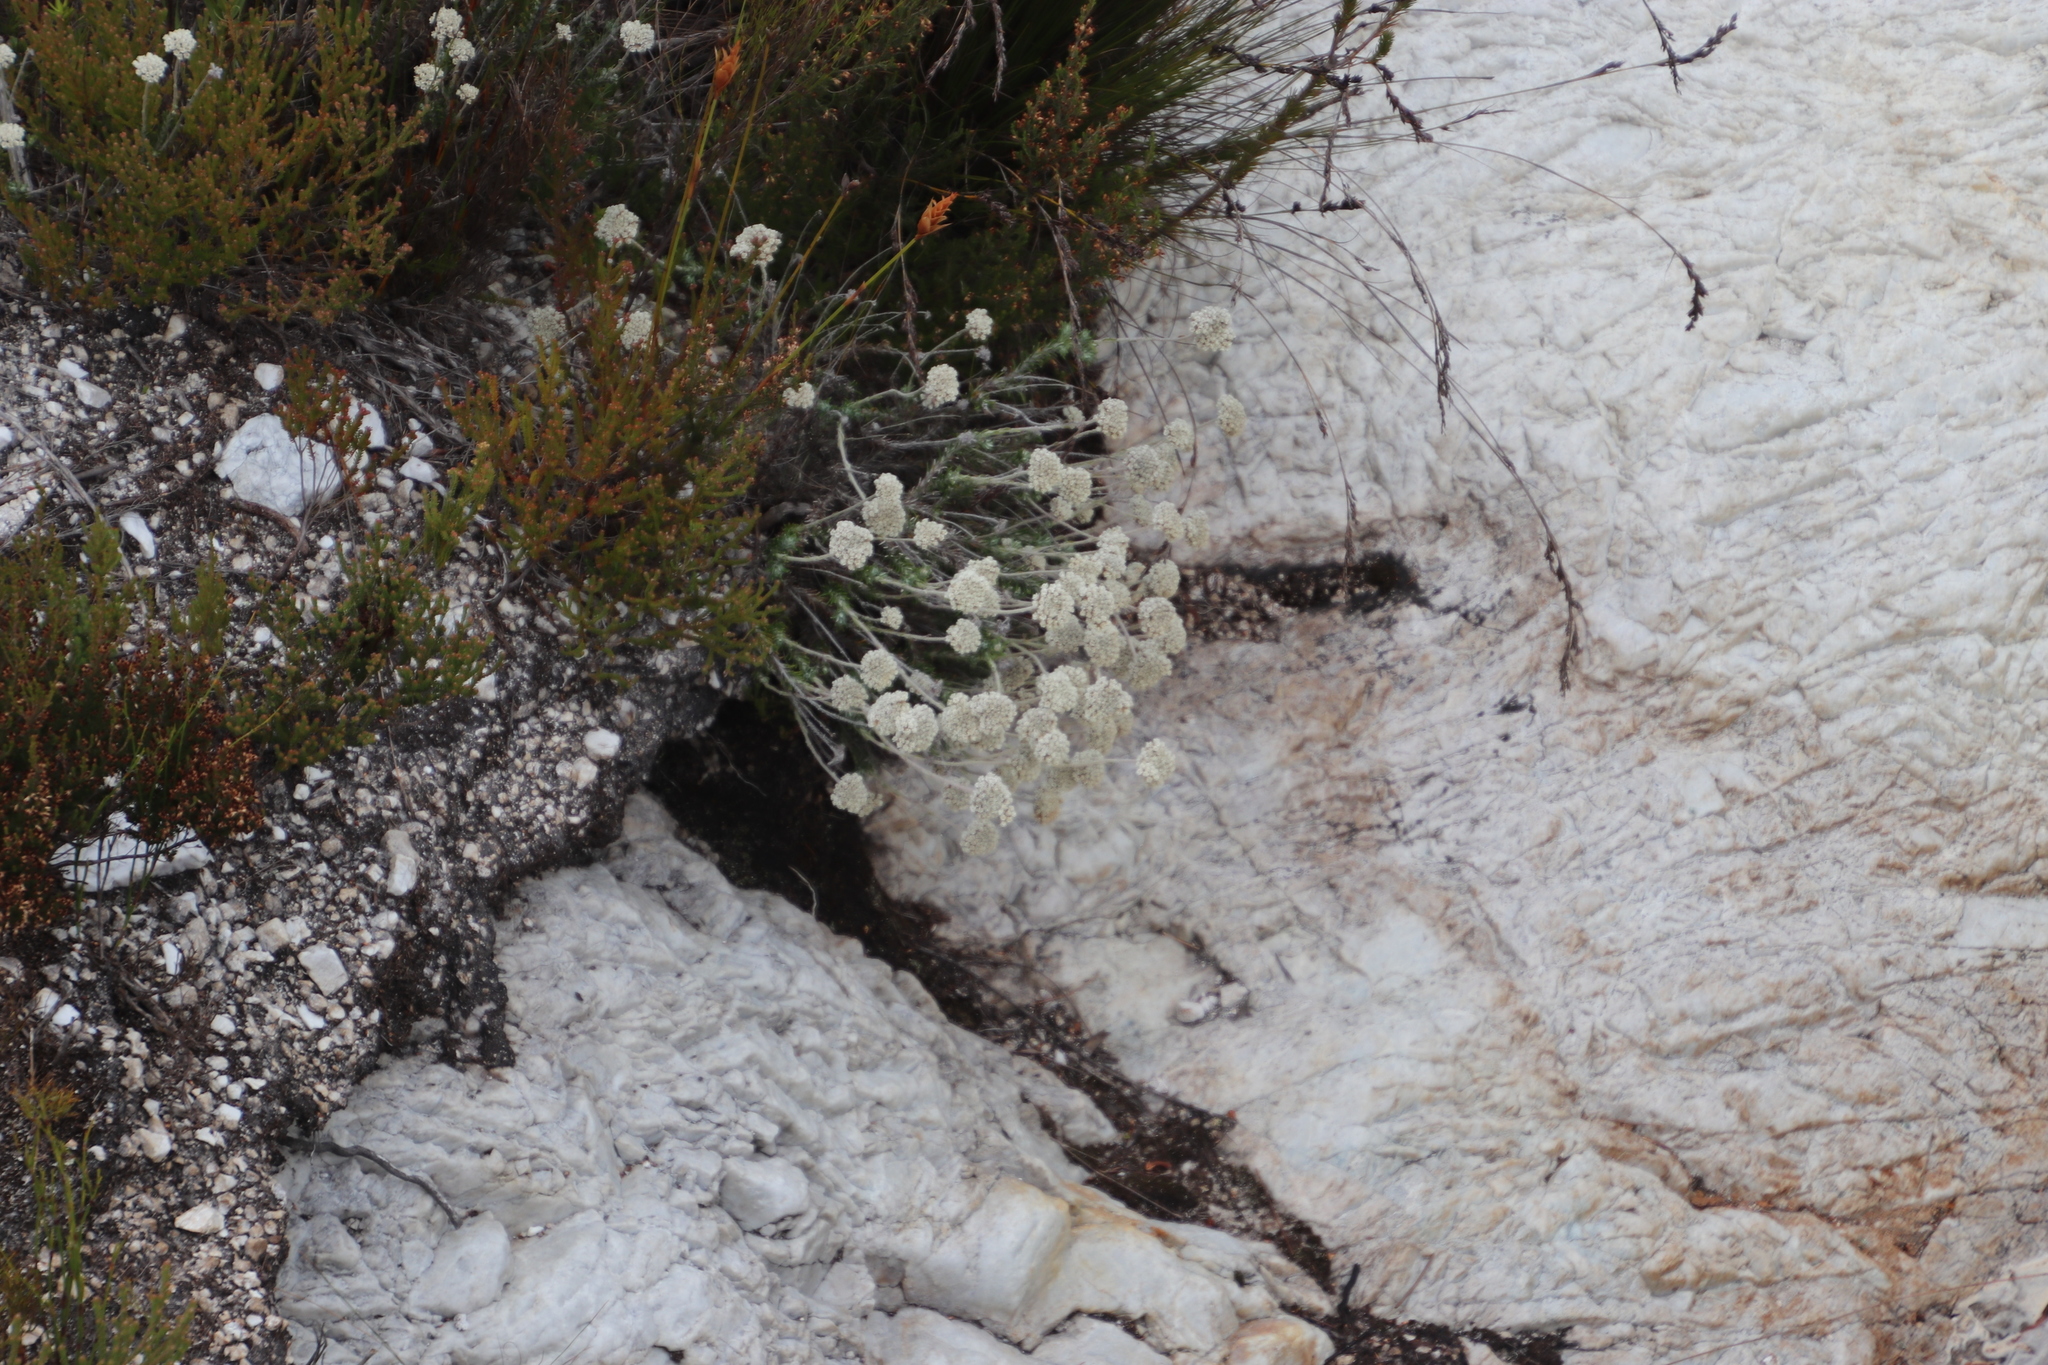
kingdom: Plantae
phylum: Tracheophyta
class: Magnoliopsida
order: Asterales
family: Asteraceae
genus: Anaxeton
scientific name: Anaxeton asperum
